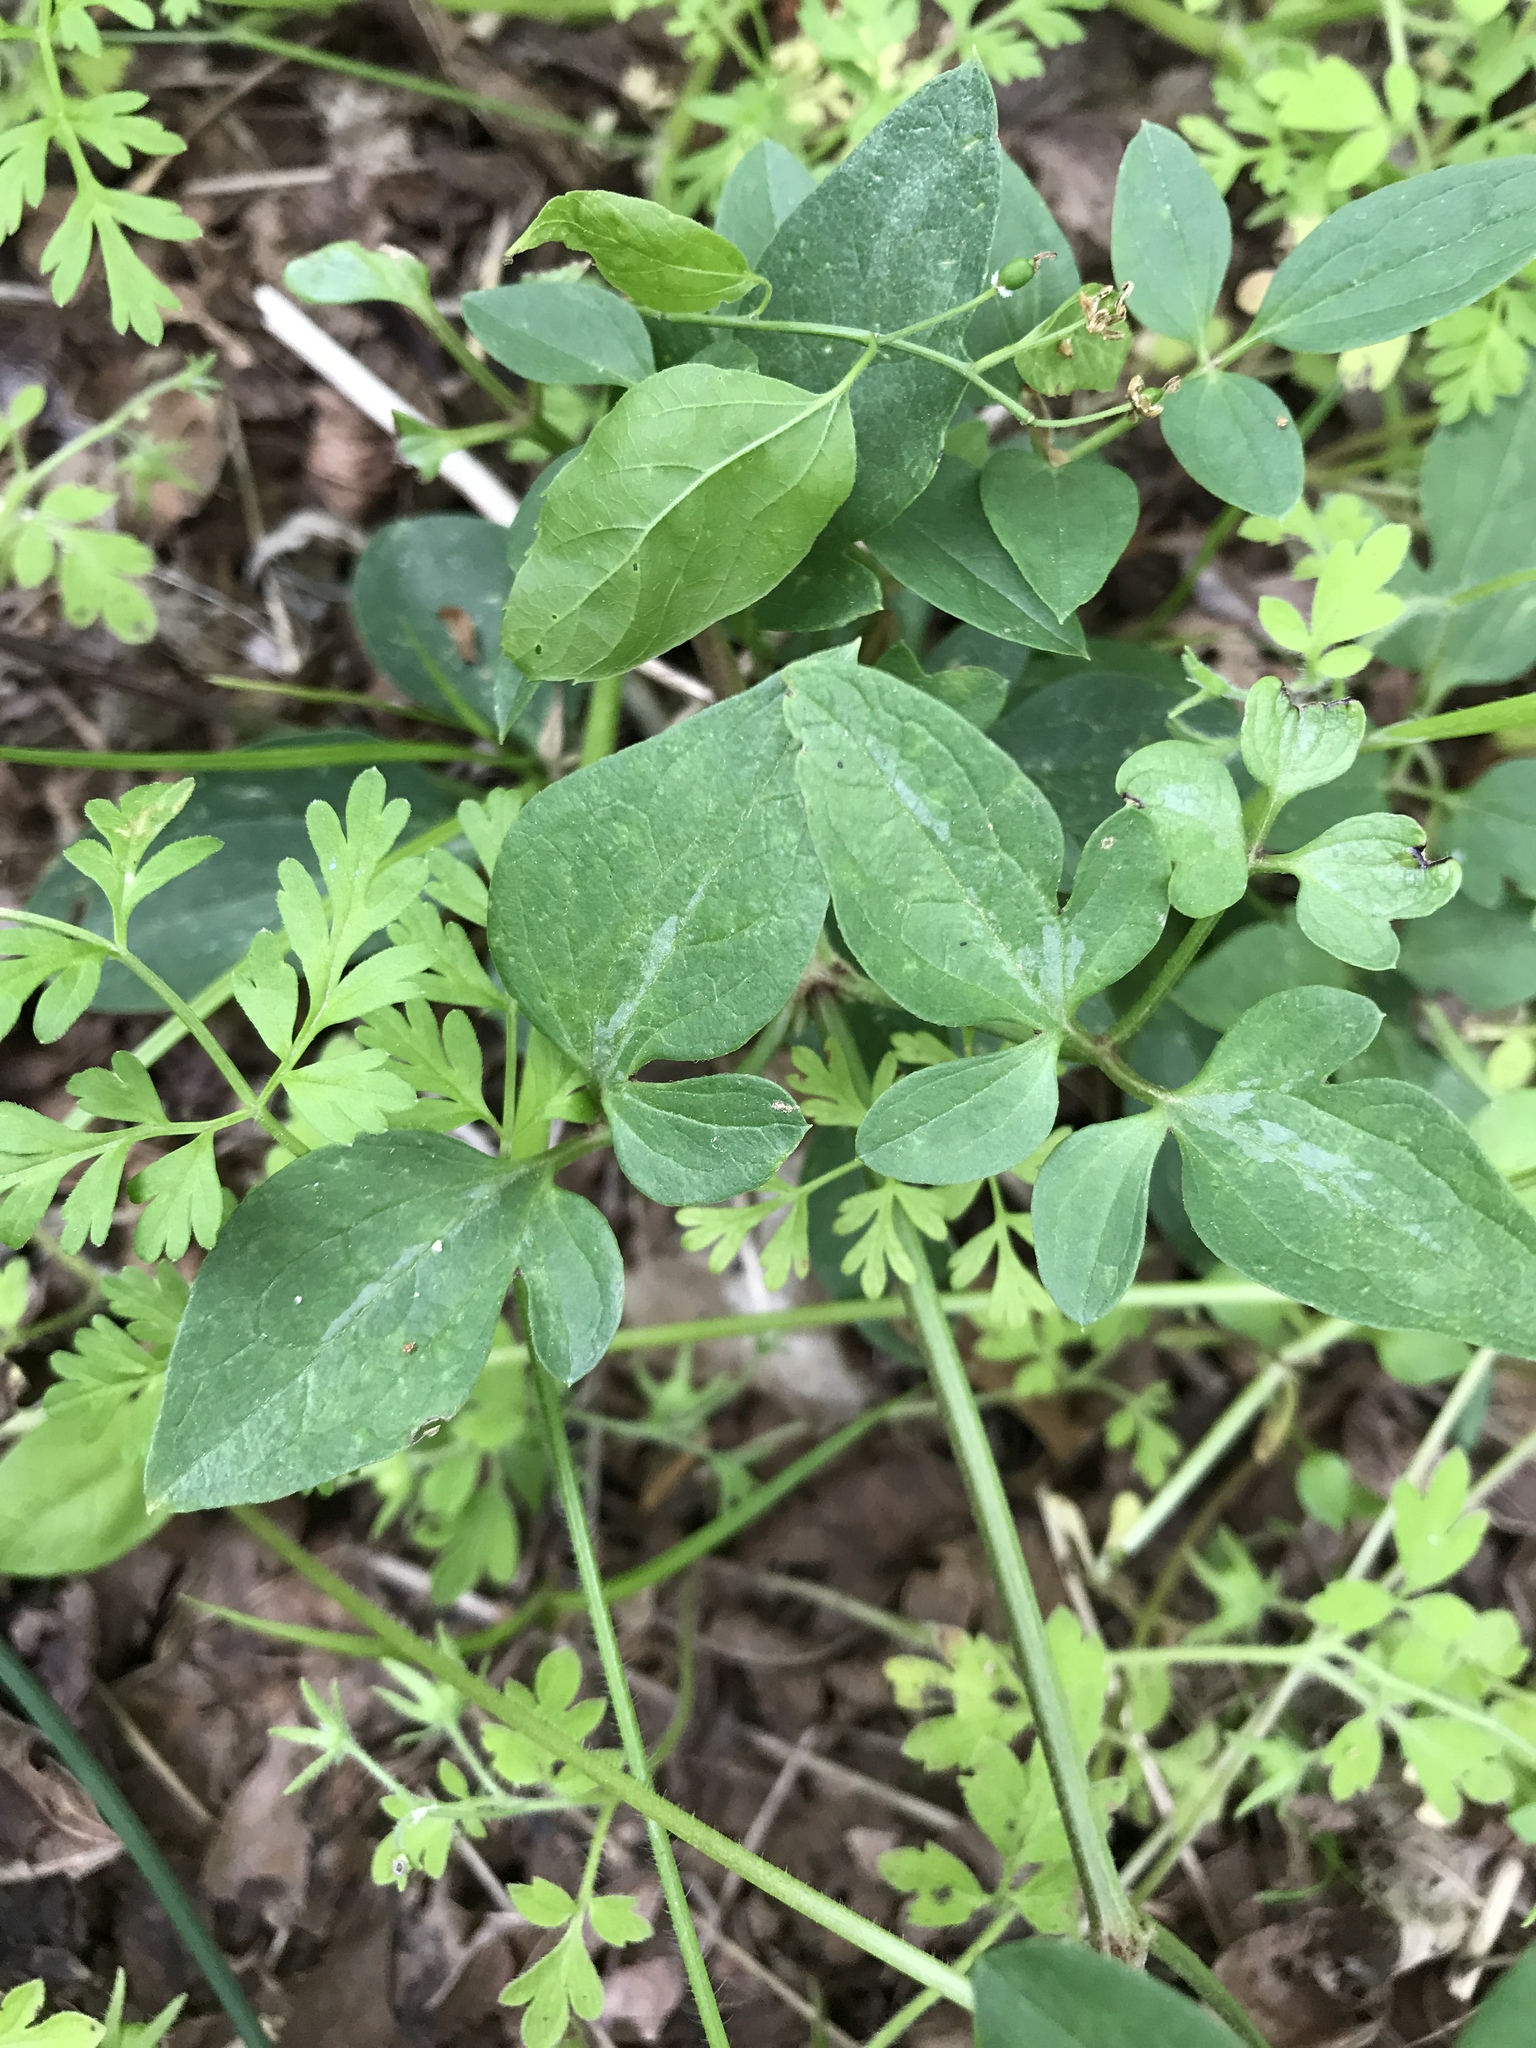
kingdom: Plantae
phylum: Tracheophyta
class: Magnoliopsida
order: Ranunculales
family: Ranunculaceae
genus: Clematis
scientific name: Clematis terniflora
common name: Sweet autumn clematis
